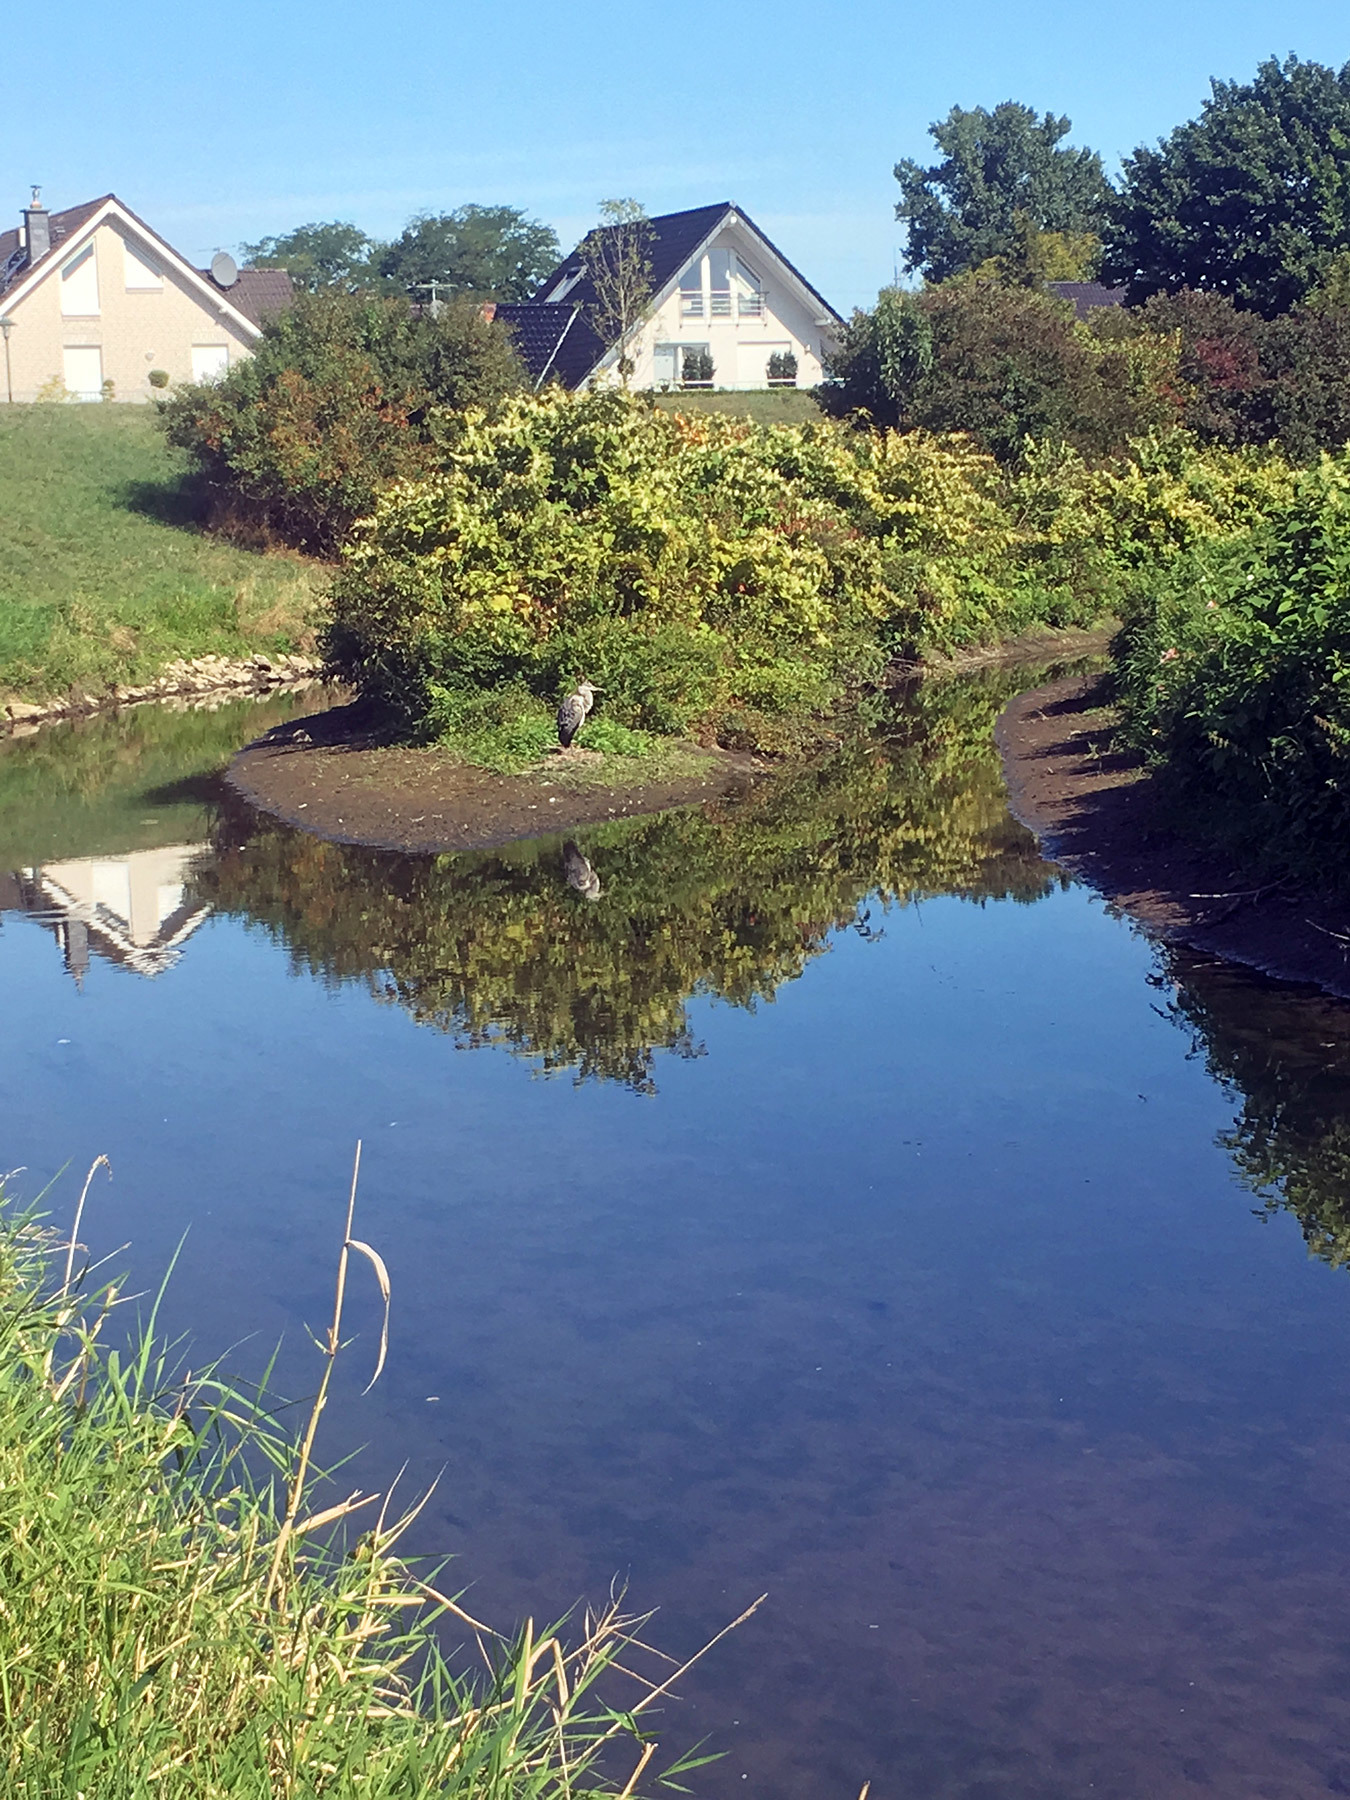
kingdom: Animalia
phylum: Chordata
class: Aves
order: Pelecaniformes
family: Ardeidae
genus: Ardea
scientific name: Ardea cinerea
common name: Grey heron
